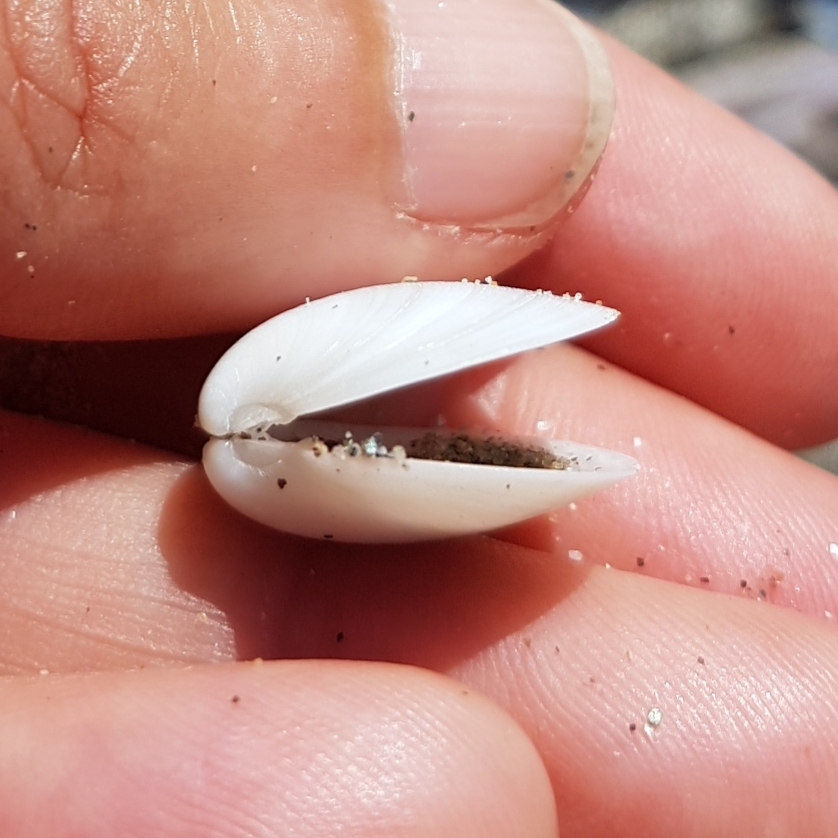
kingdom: Animalia
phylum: Mollusca
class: Bivalvia
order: Venerida
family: Veneridae
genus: Dosinia
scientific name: Dosinia lupinus
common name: Smooth artemis
